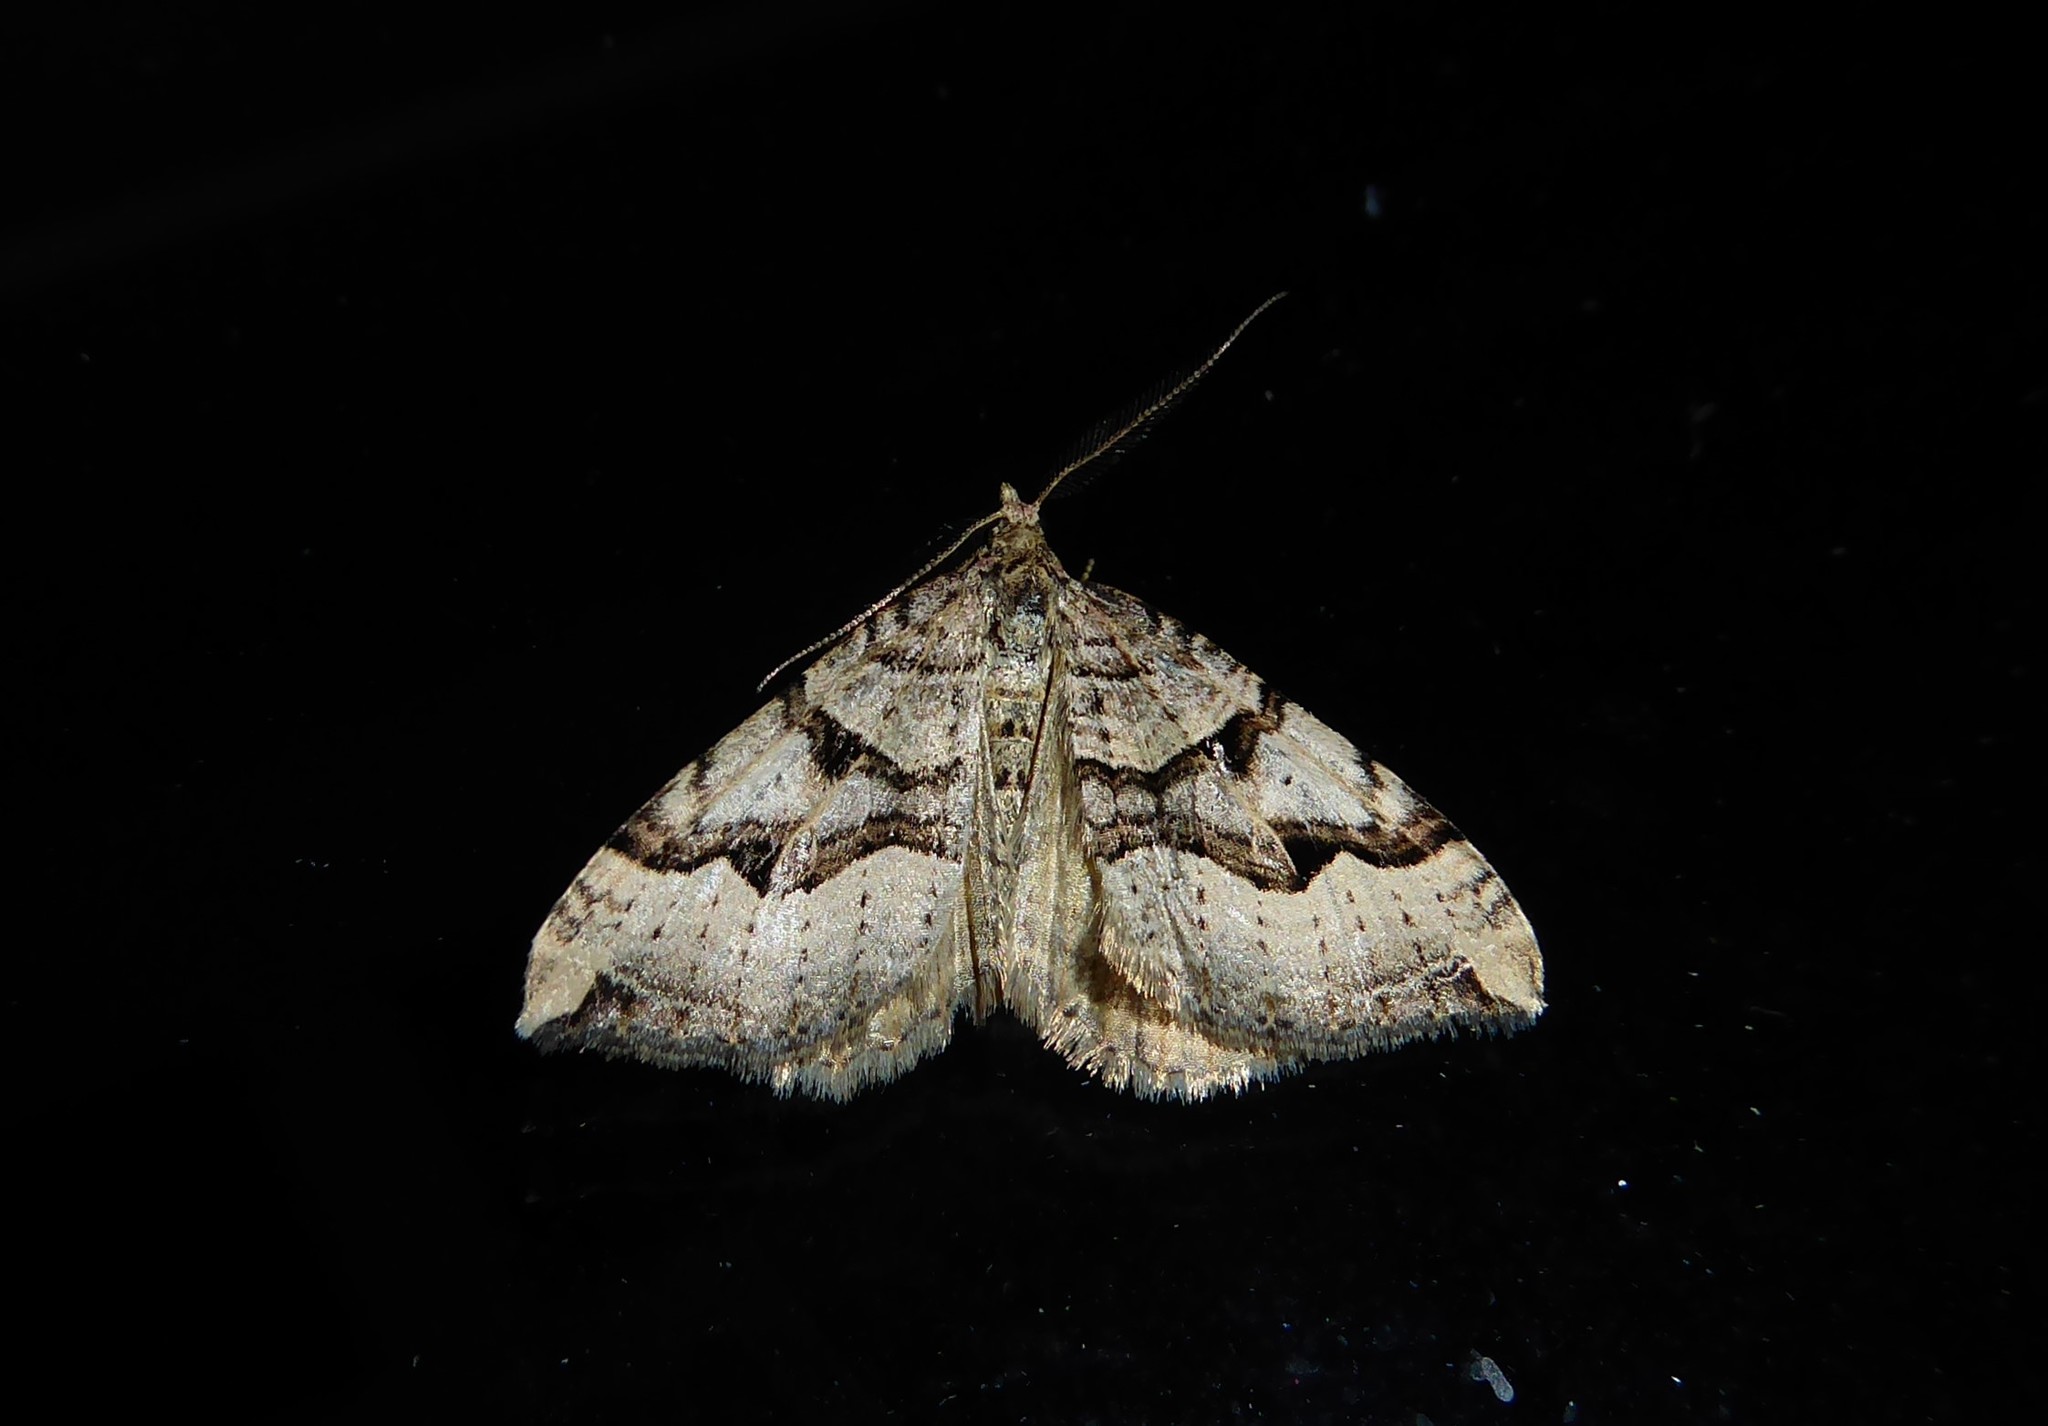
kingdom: Animalia
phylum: Arthropoda
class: Insecta
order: Lepidoptera
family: Geometridae
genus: Xanthorhoe
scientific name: Xanthorhoe semifissata
